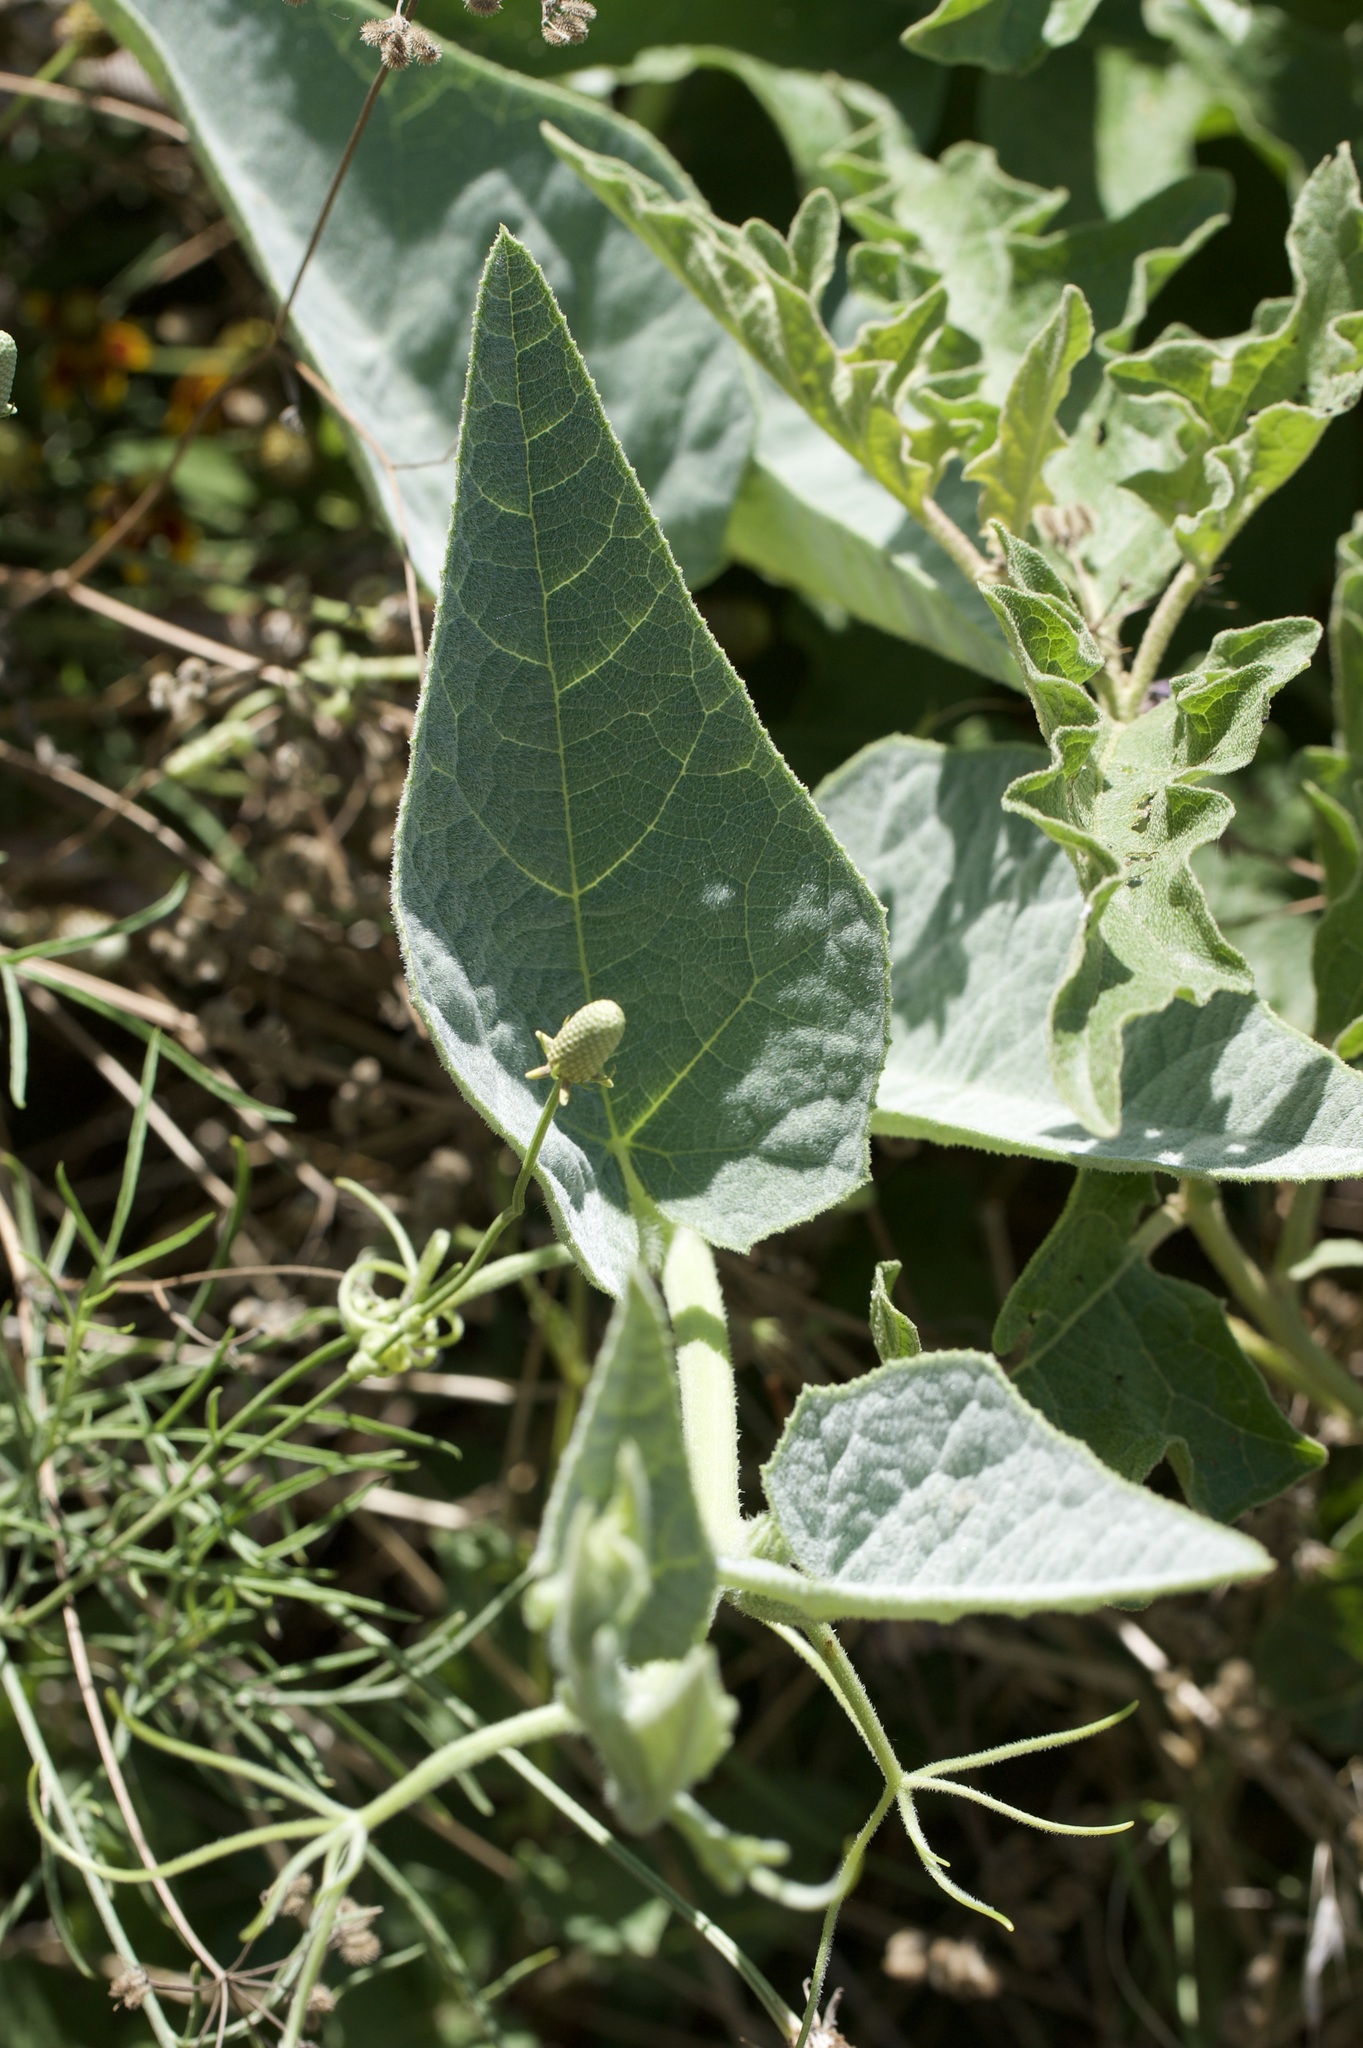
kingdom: Plantae
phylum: Tracheophyta
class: Magnoliopsida
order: Cucurbitales
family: Cucurbitaceae
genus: Cucurbita
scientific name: Cucurbita foetidissima
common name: Buffalo gourd
